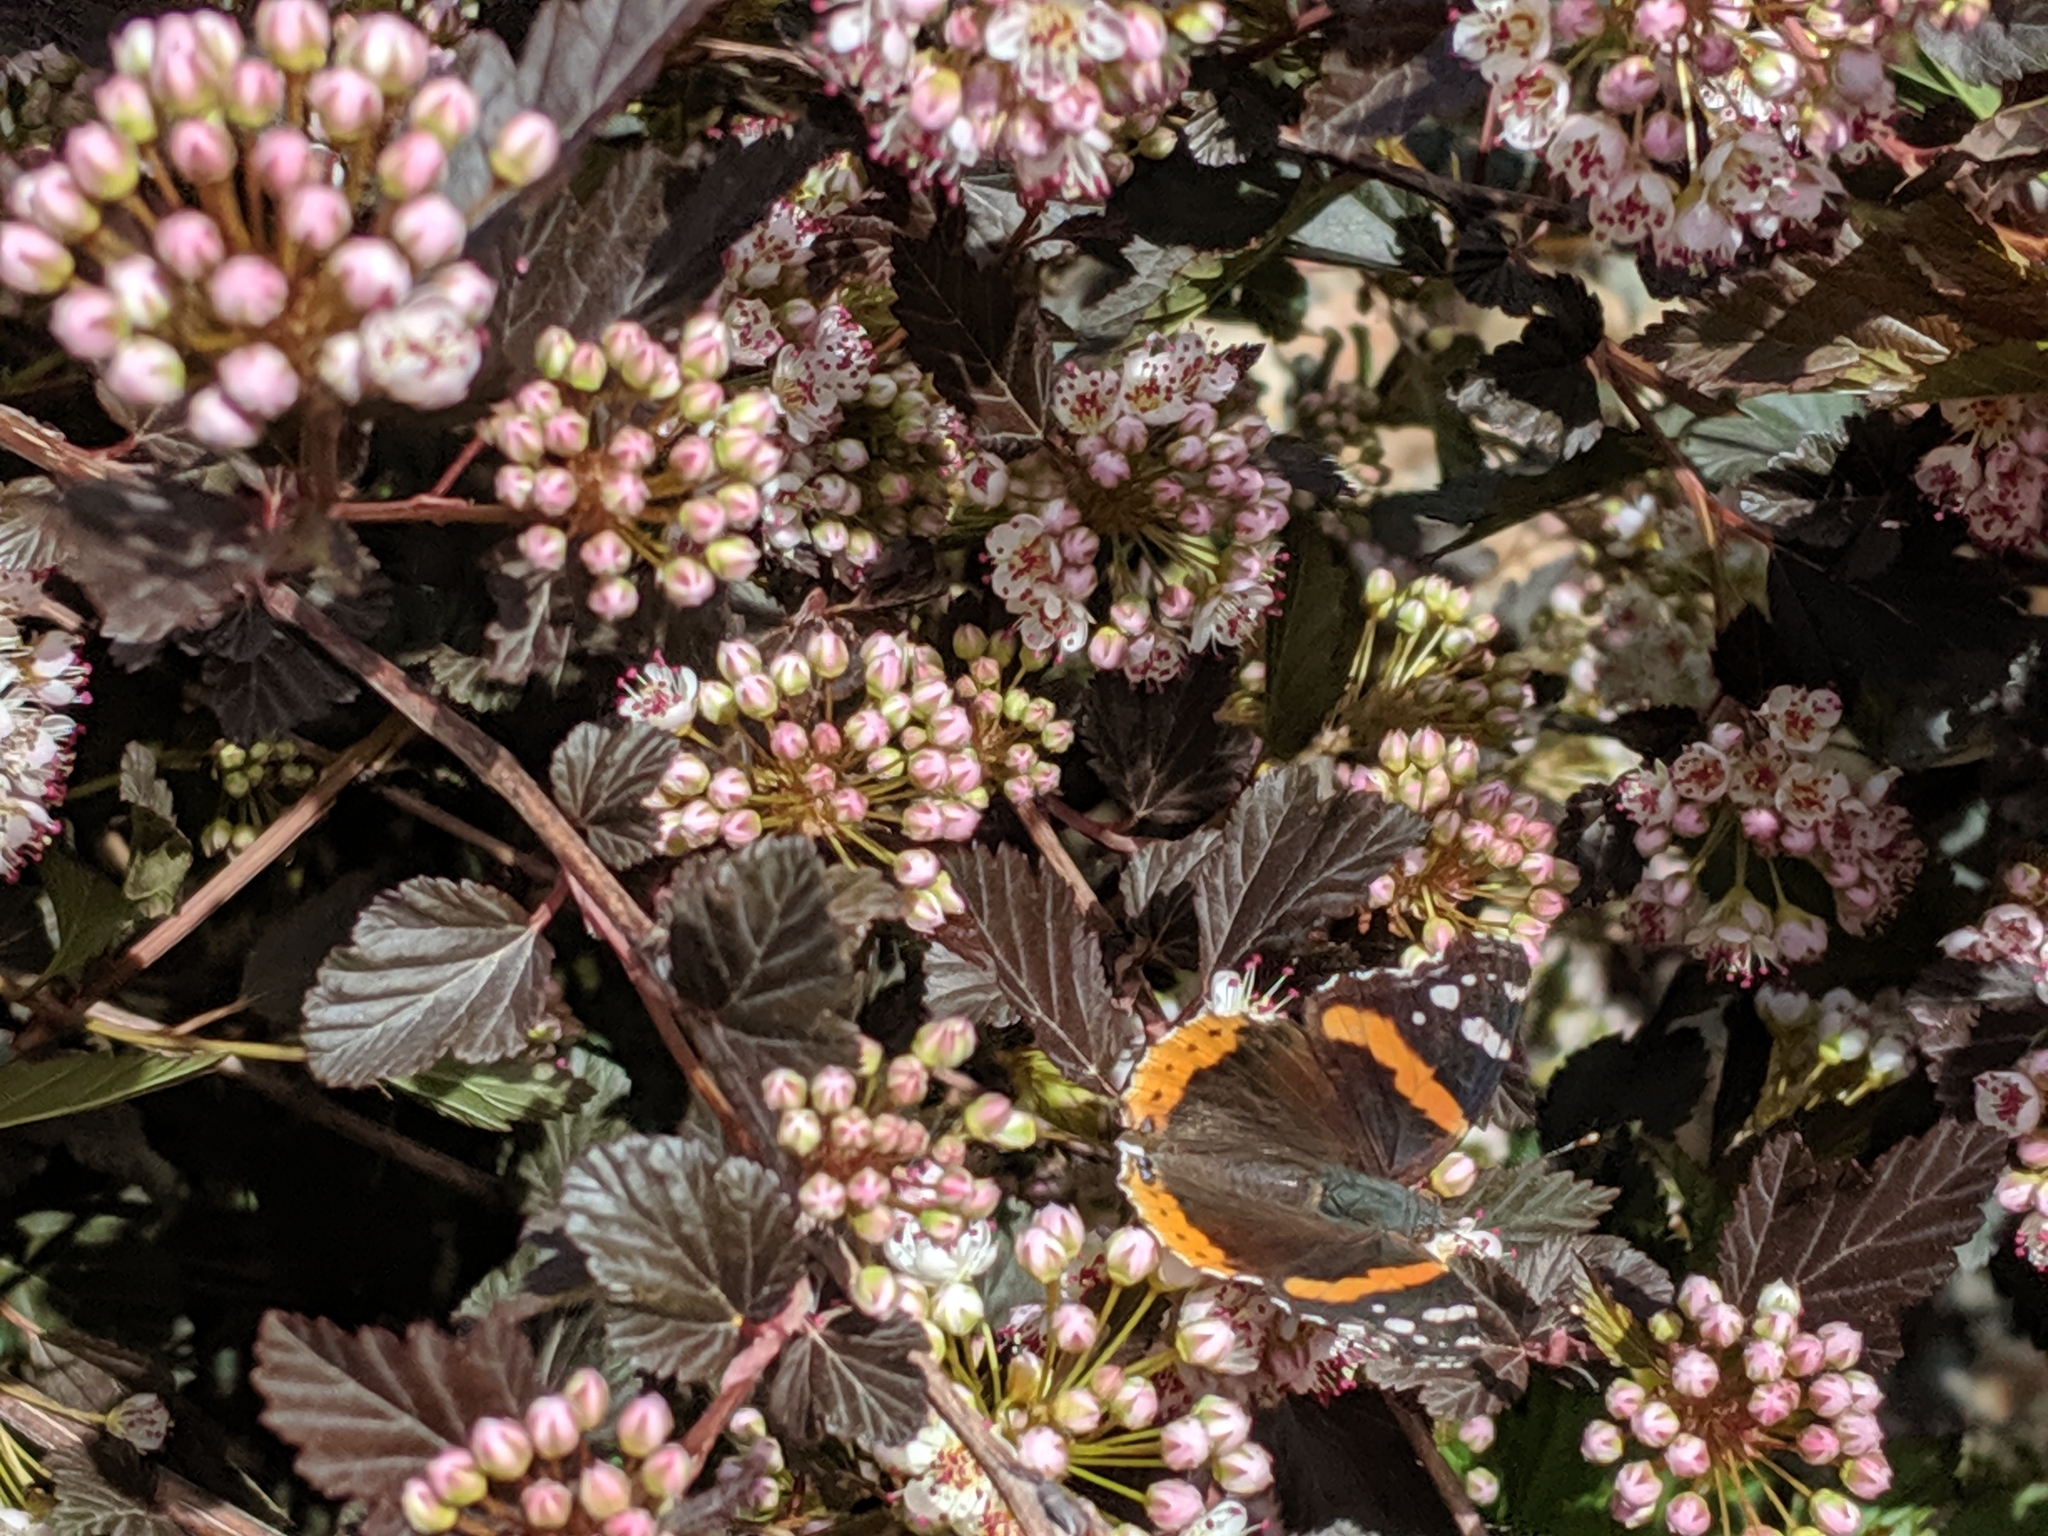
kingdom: Animalia
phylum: Arthropoda
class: Insecta
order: Lepidoptera
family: Nymphalidae
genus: Vanessa
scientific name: Vanessa atalanta
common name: Red admiral
